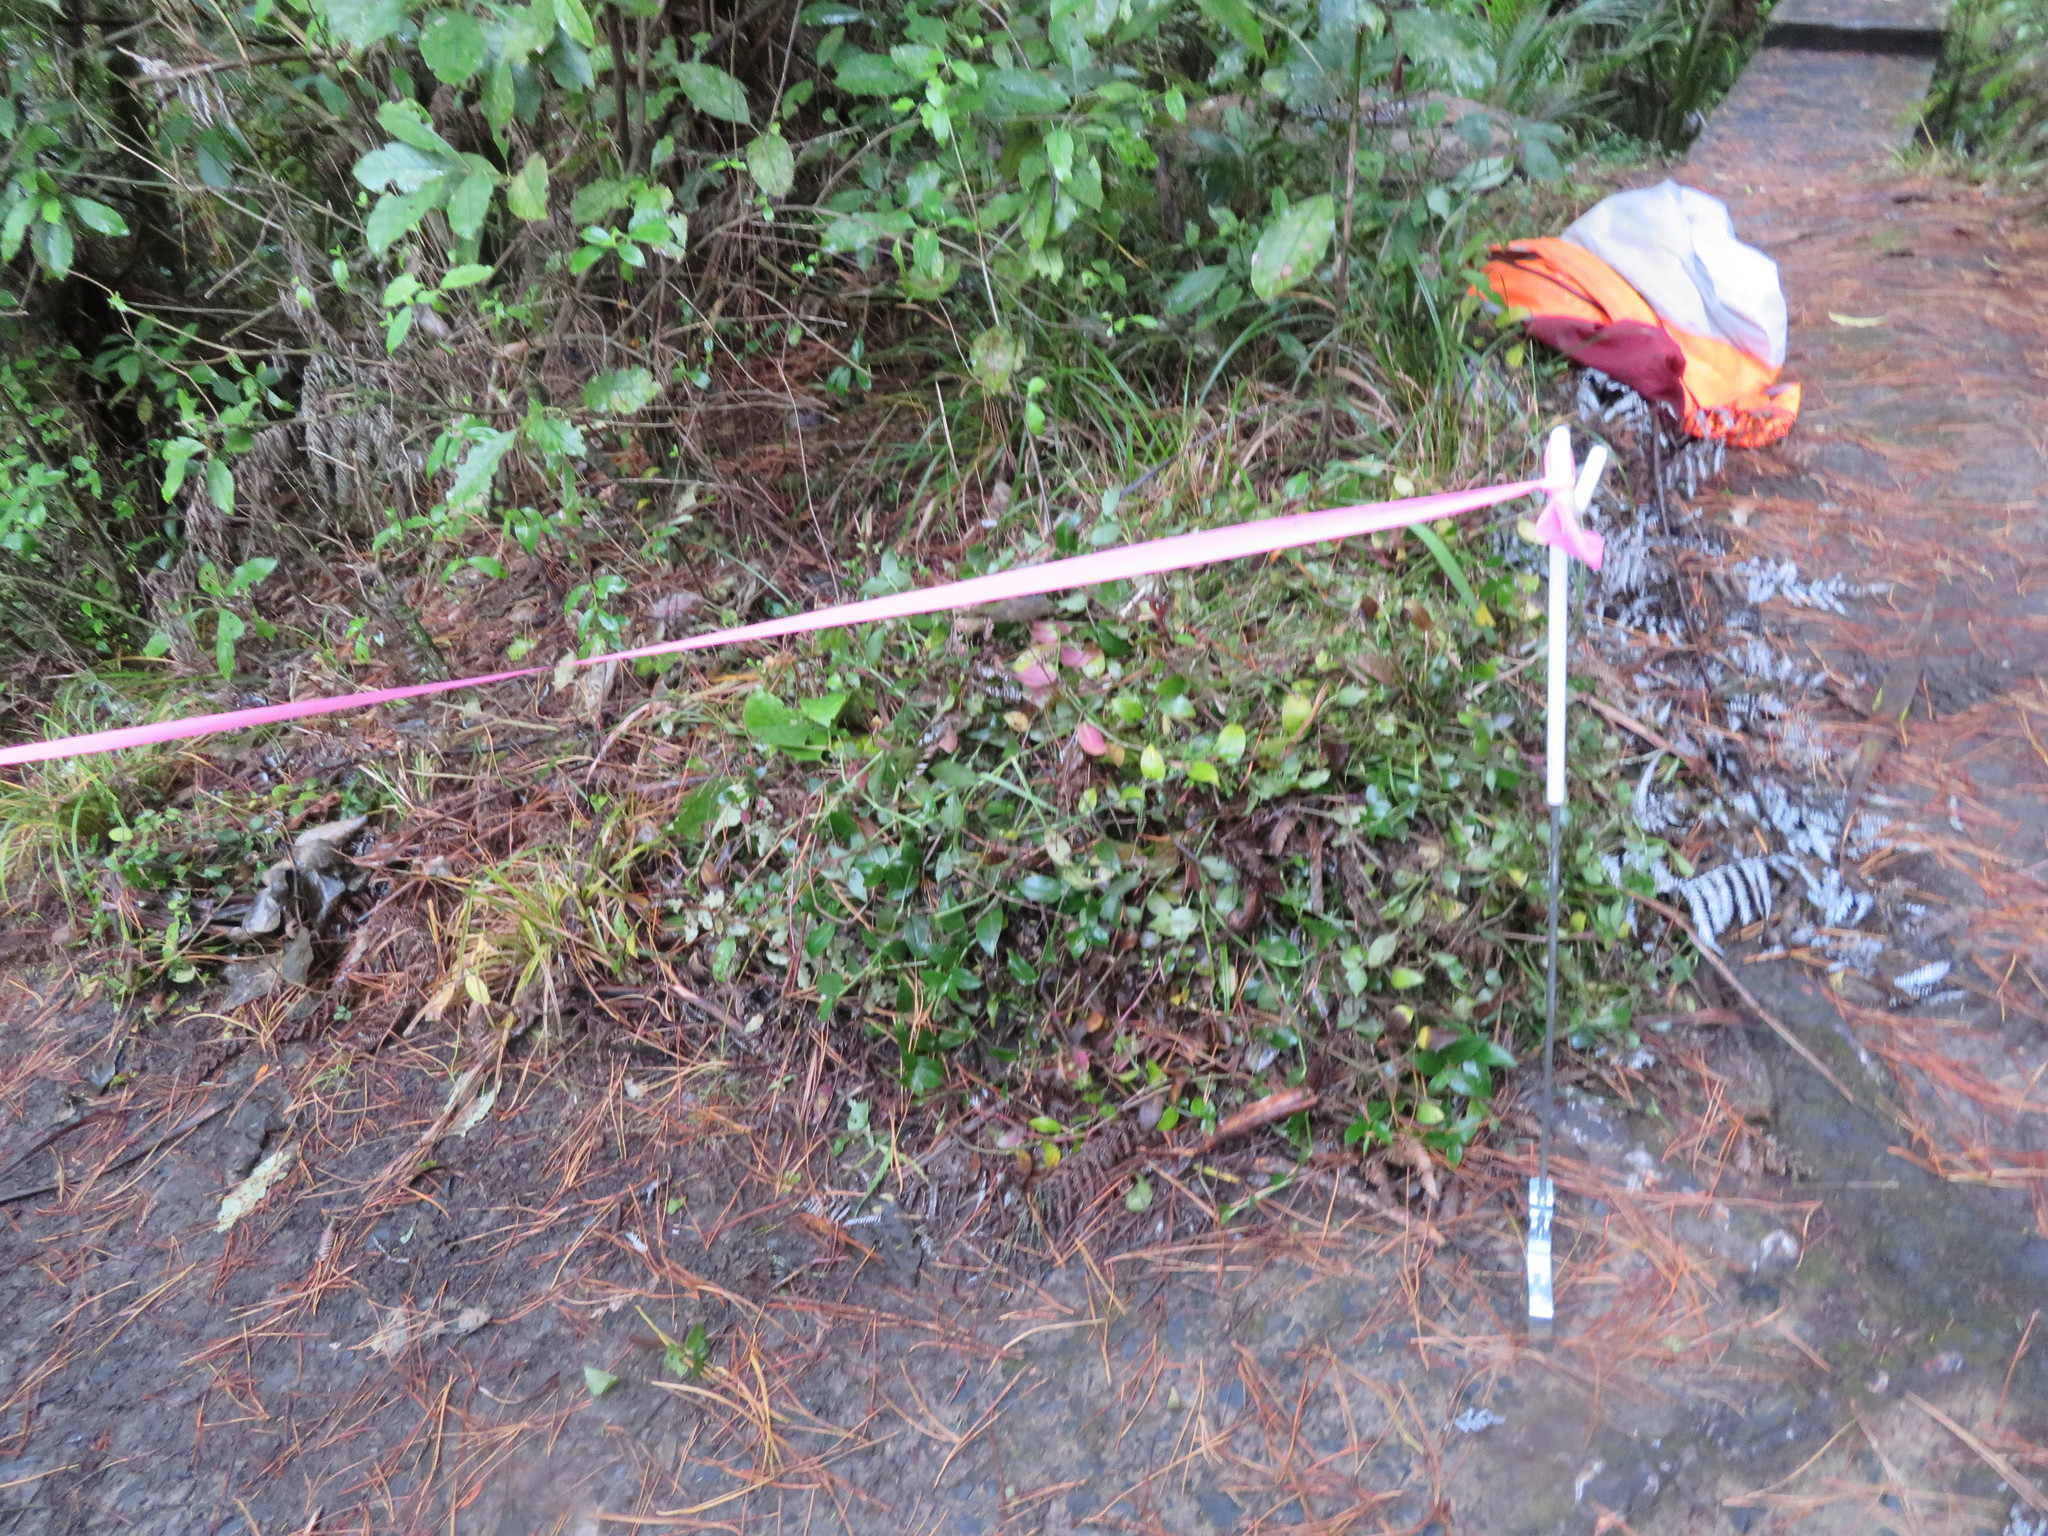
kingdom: Plantae
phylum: Tracheophyta
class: Liliopsida
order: Commelinales
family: Commelinaceae
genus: Tradescantia
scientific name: Tradescantia fluminensis
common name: Wandering-jew
